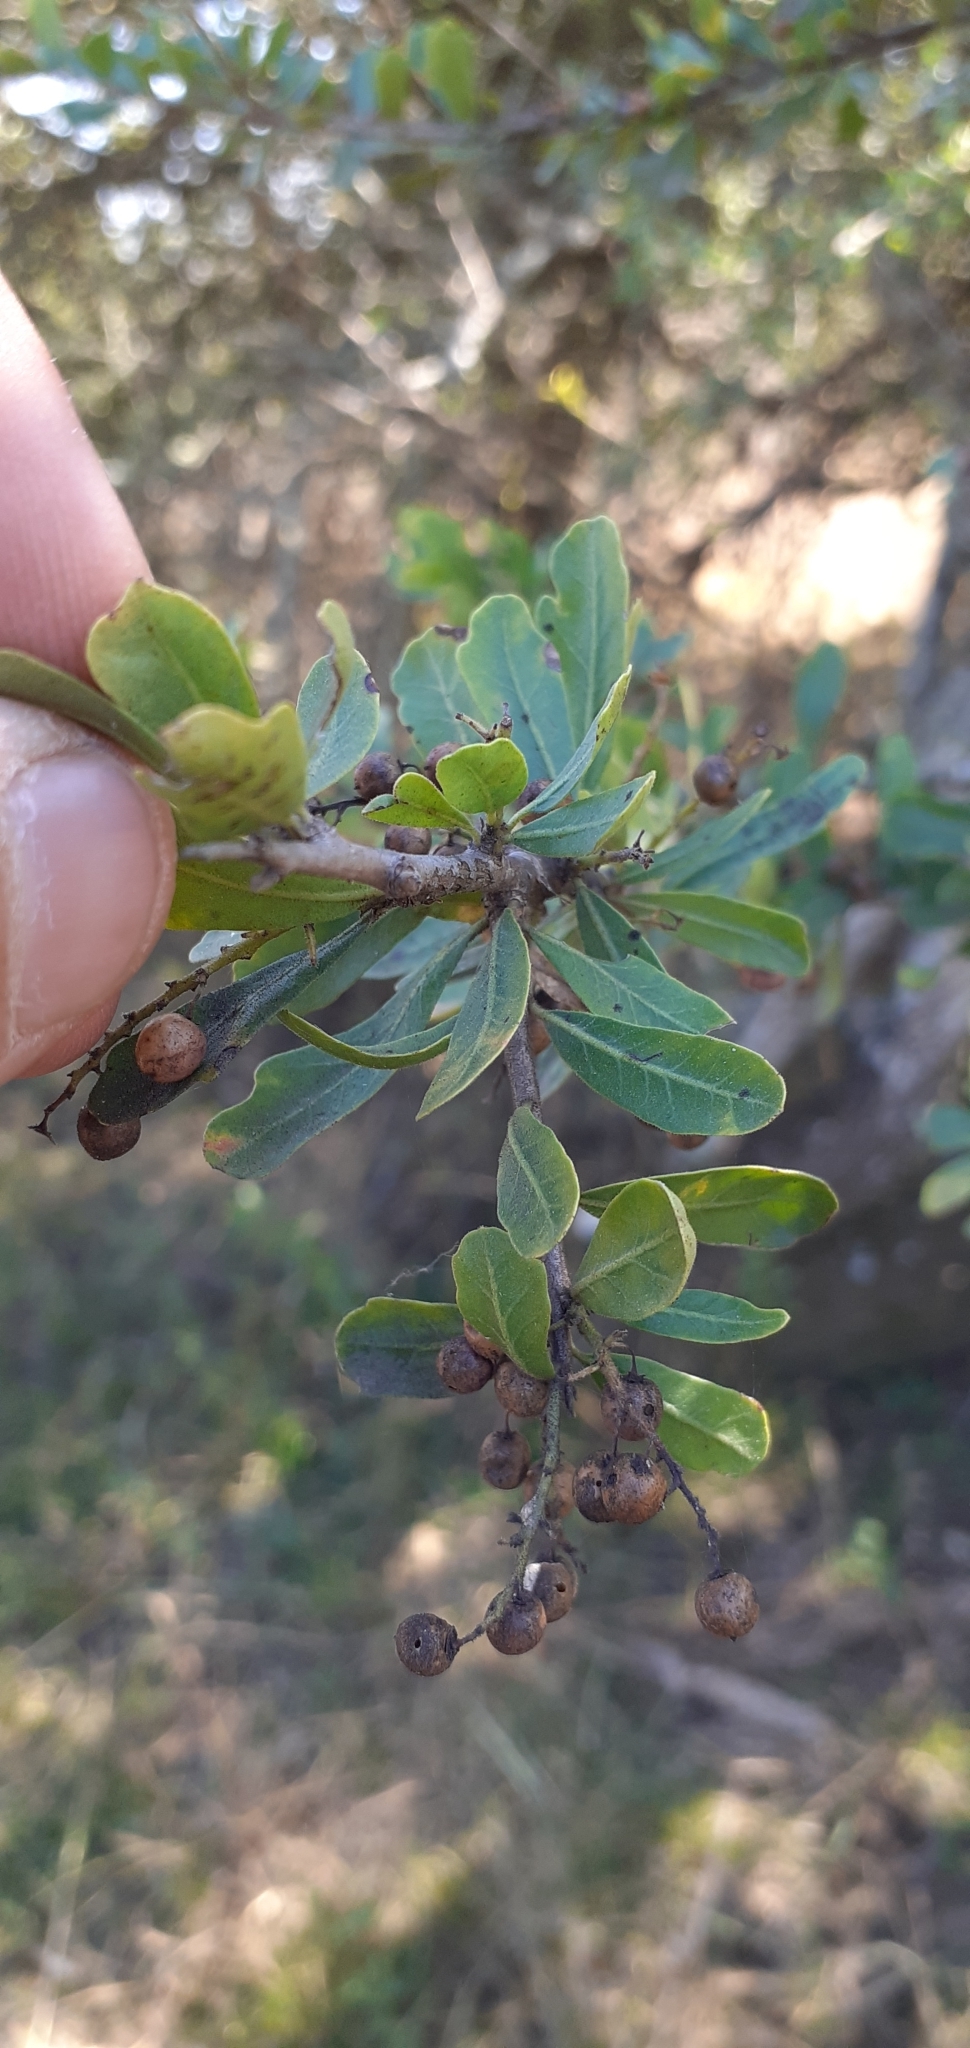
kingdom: Plantae
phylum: Tracheophyta
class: Magnoliopsida
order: Sapindales
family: Anacardiaceae
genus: Schinus
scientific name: Schinus fasciculata
